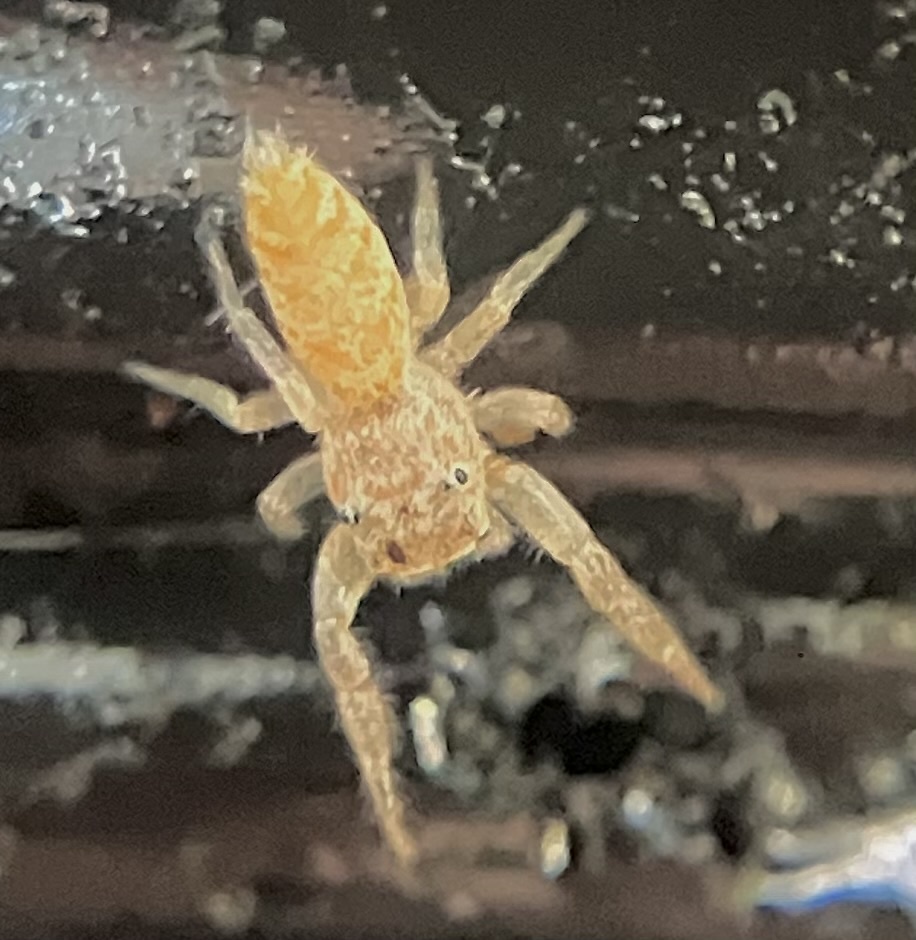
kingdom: Animalia
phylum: Arthropoda
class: Arachnida
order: Araneae
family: Salticidae
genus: Hentzia
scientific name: Hentzia mitrata
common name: White-jawed jumping spider
